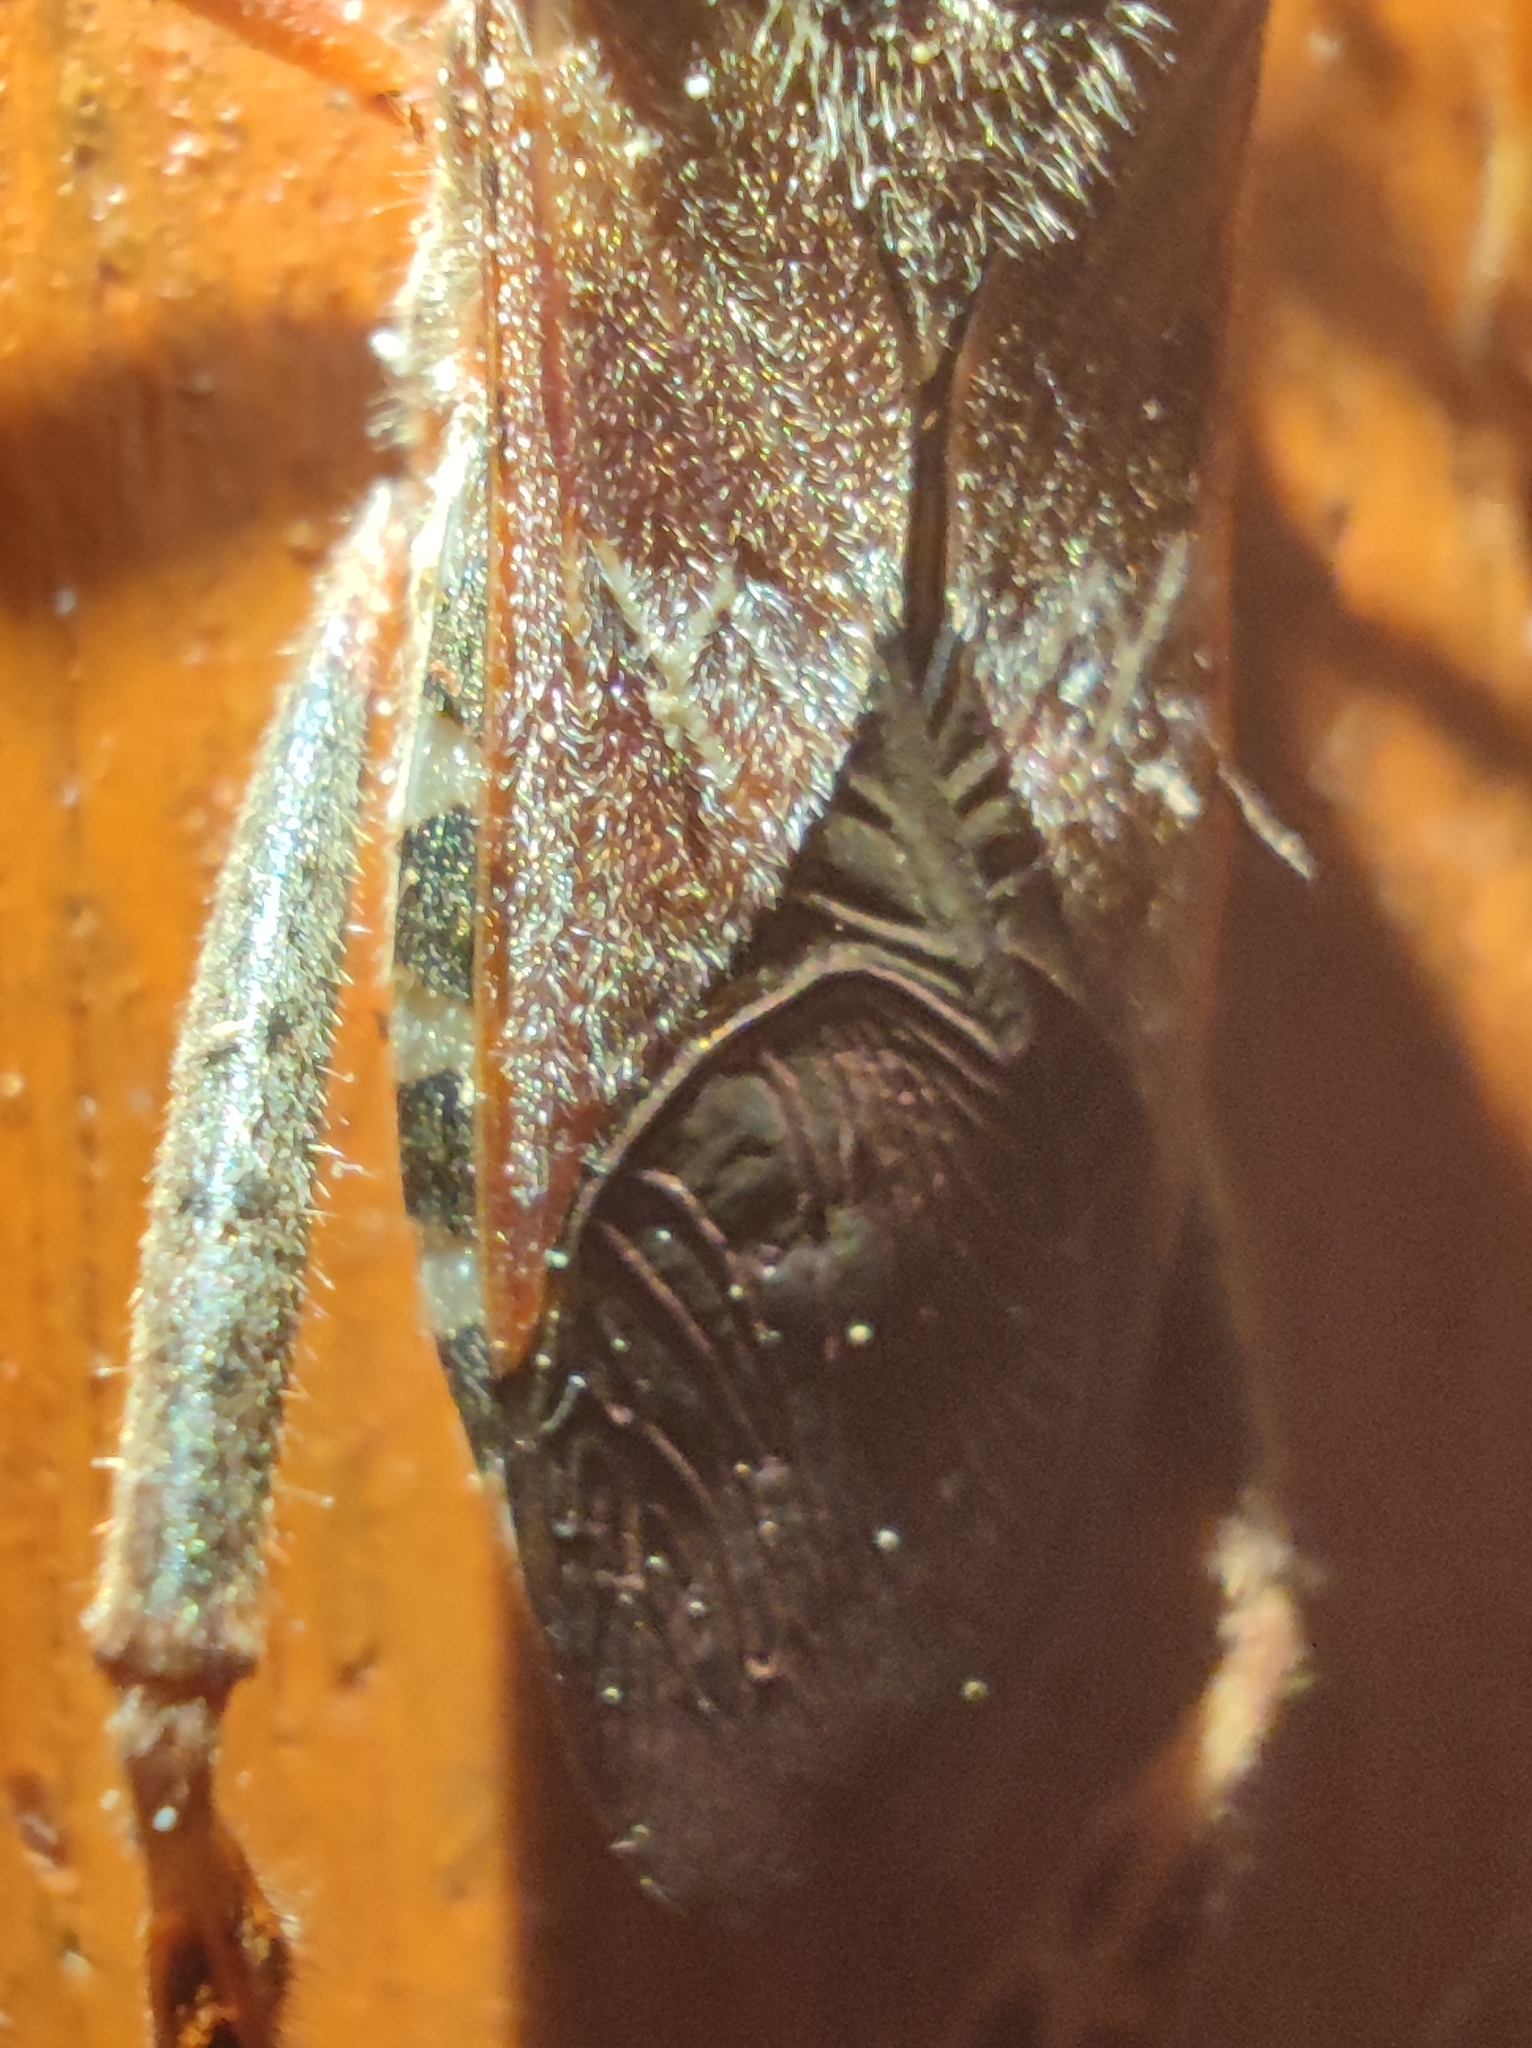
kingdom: Animalia
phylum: Arthropoda
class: Insecta
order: Hemiptera
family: Coreidae
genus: Leptoglossus
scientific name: Leptoglossus occidentalis
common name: Western conifer-seed bug
